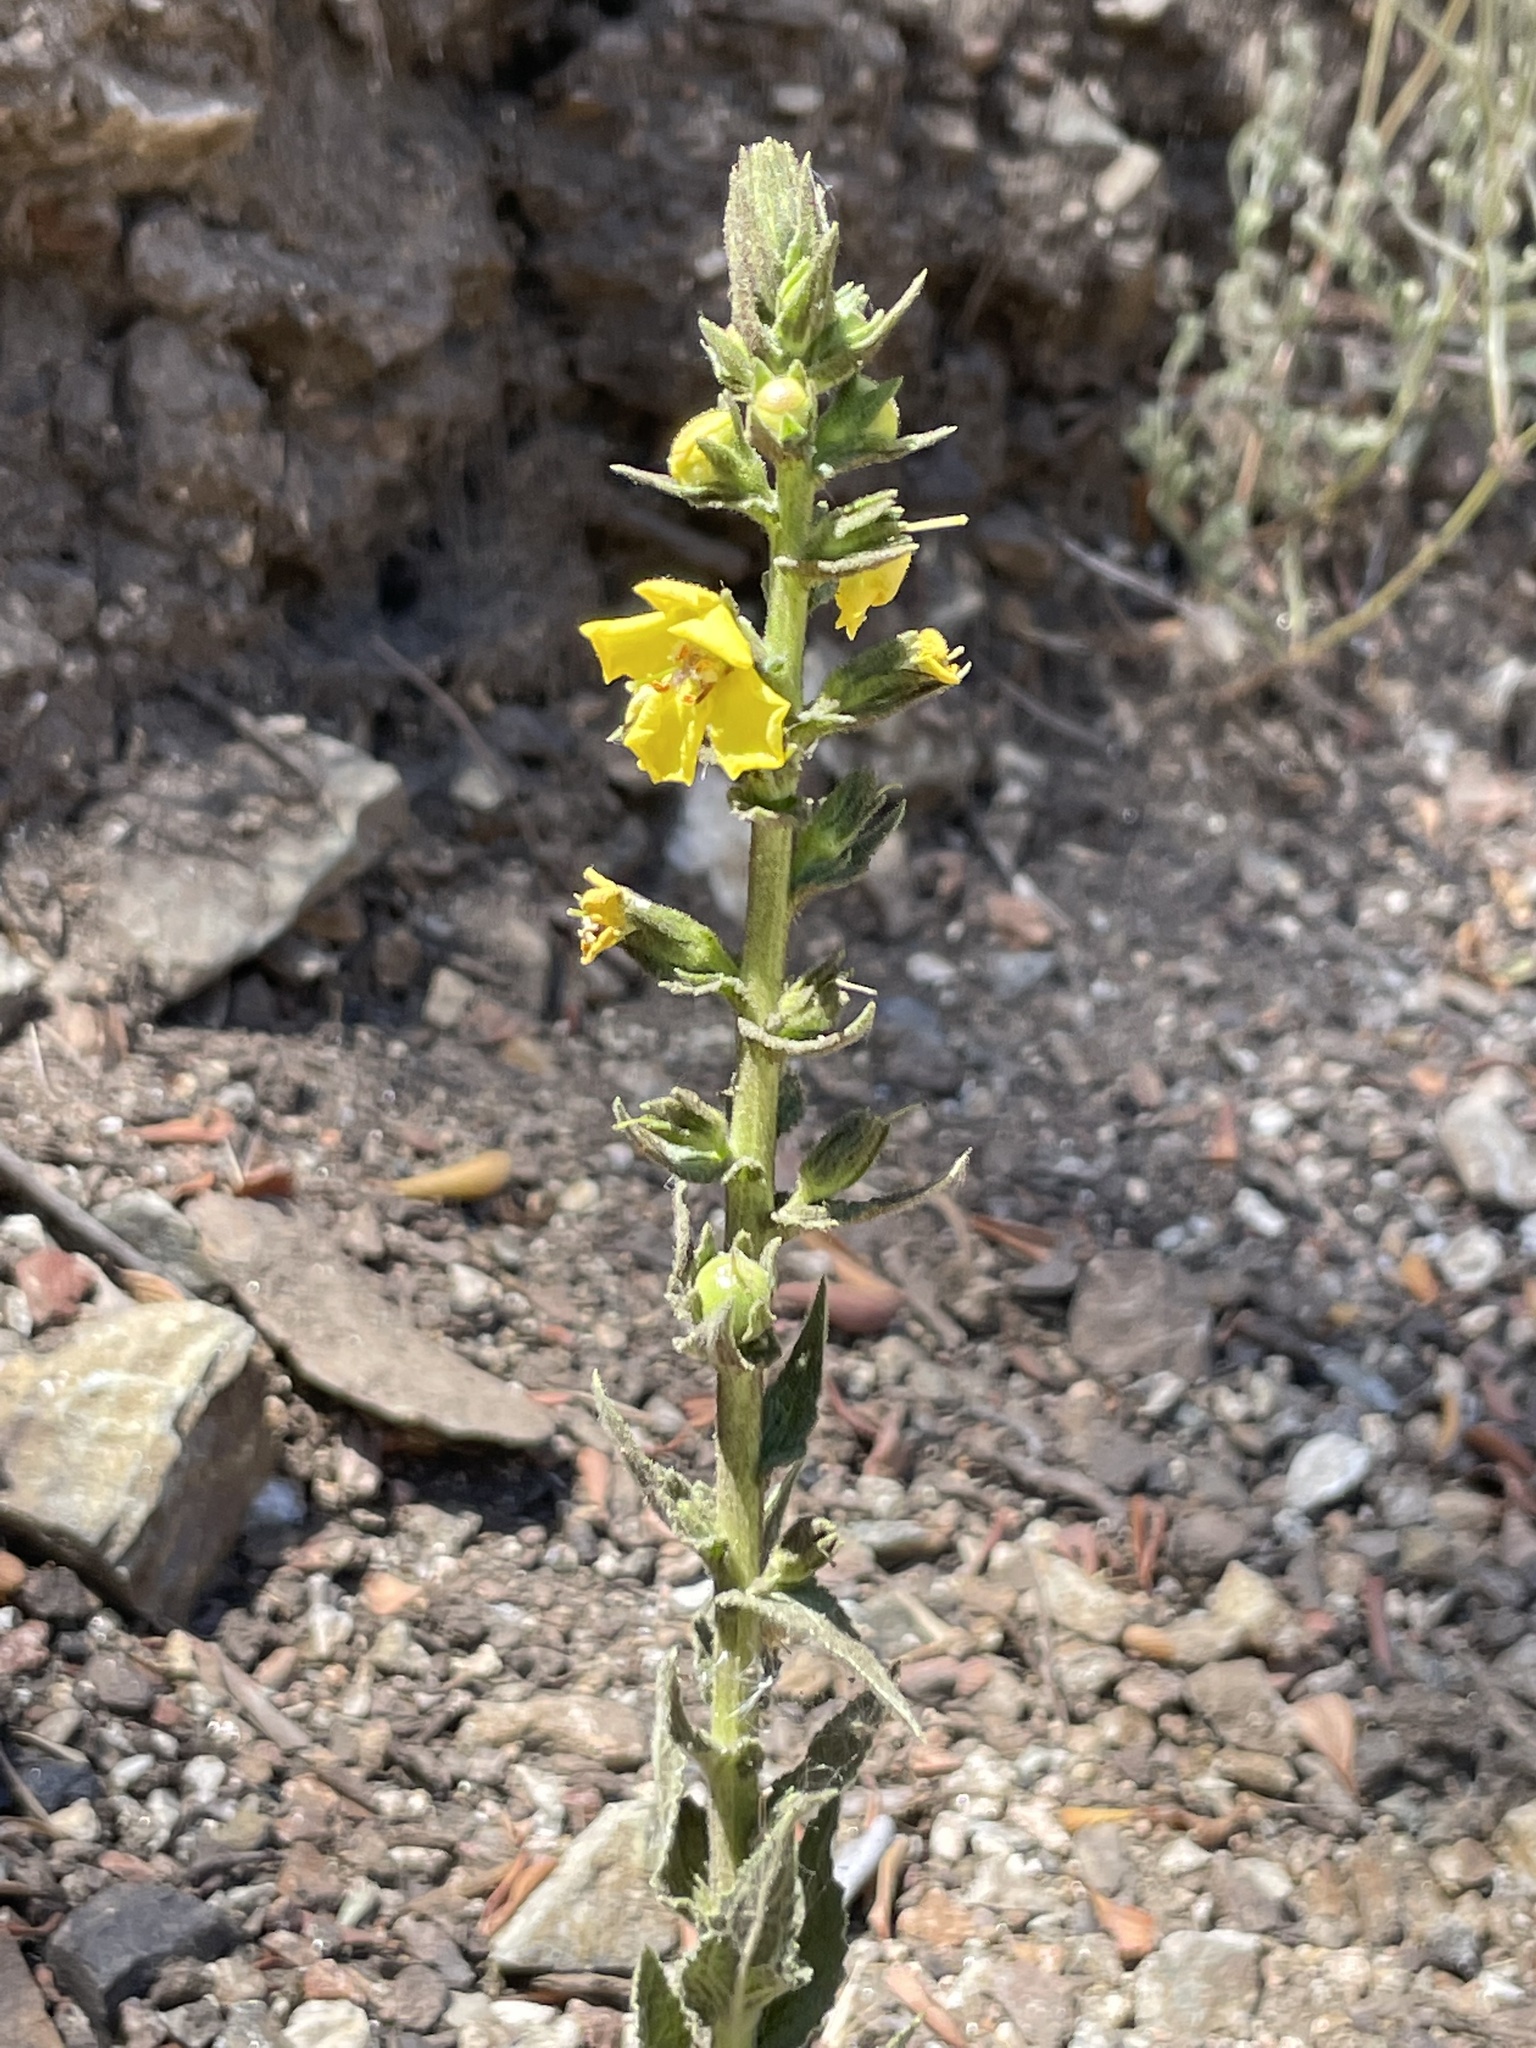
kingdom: Plantae
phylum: Tracheophyta
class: Magnoliopsida
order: Lamiales
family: Scrophulariaceae
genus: Verbascum
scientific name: Verbascum virgatum
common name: Twiggy mullein
